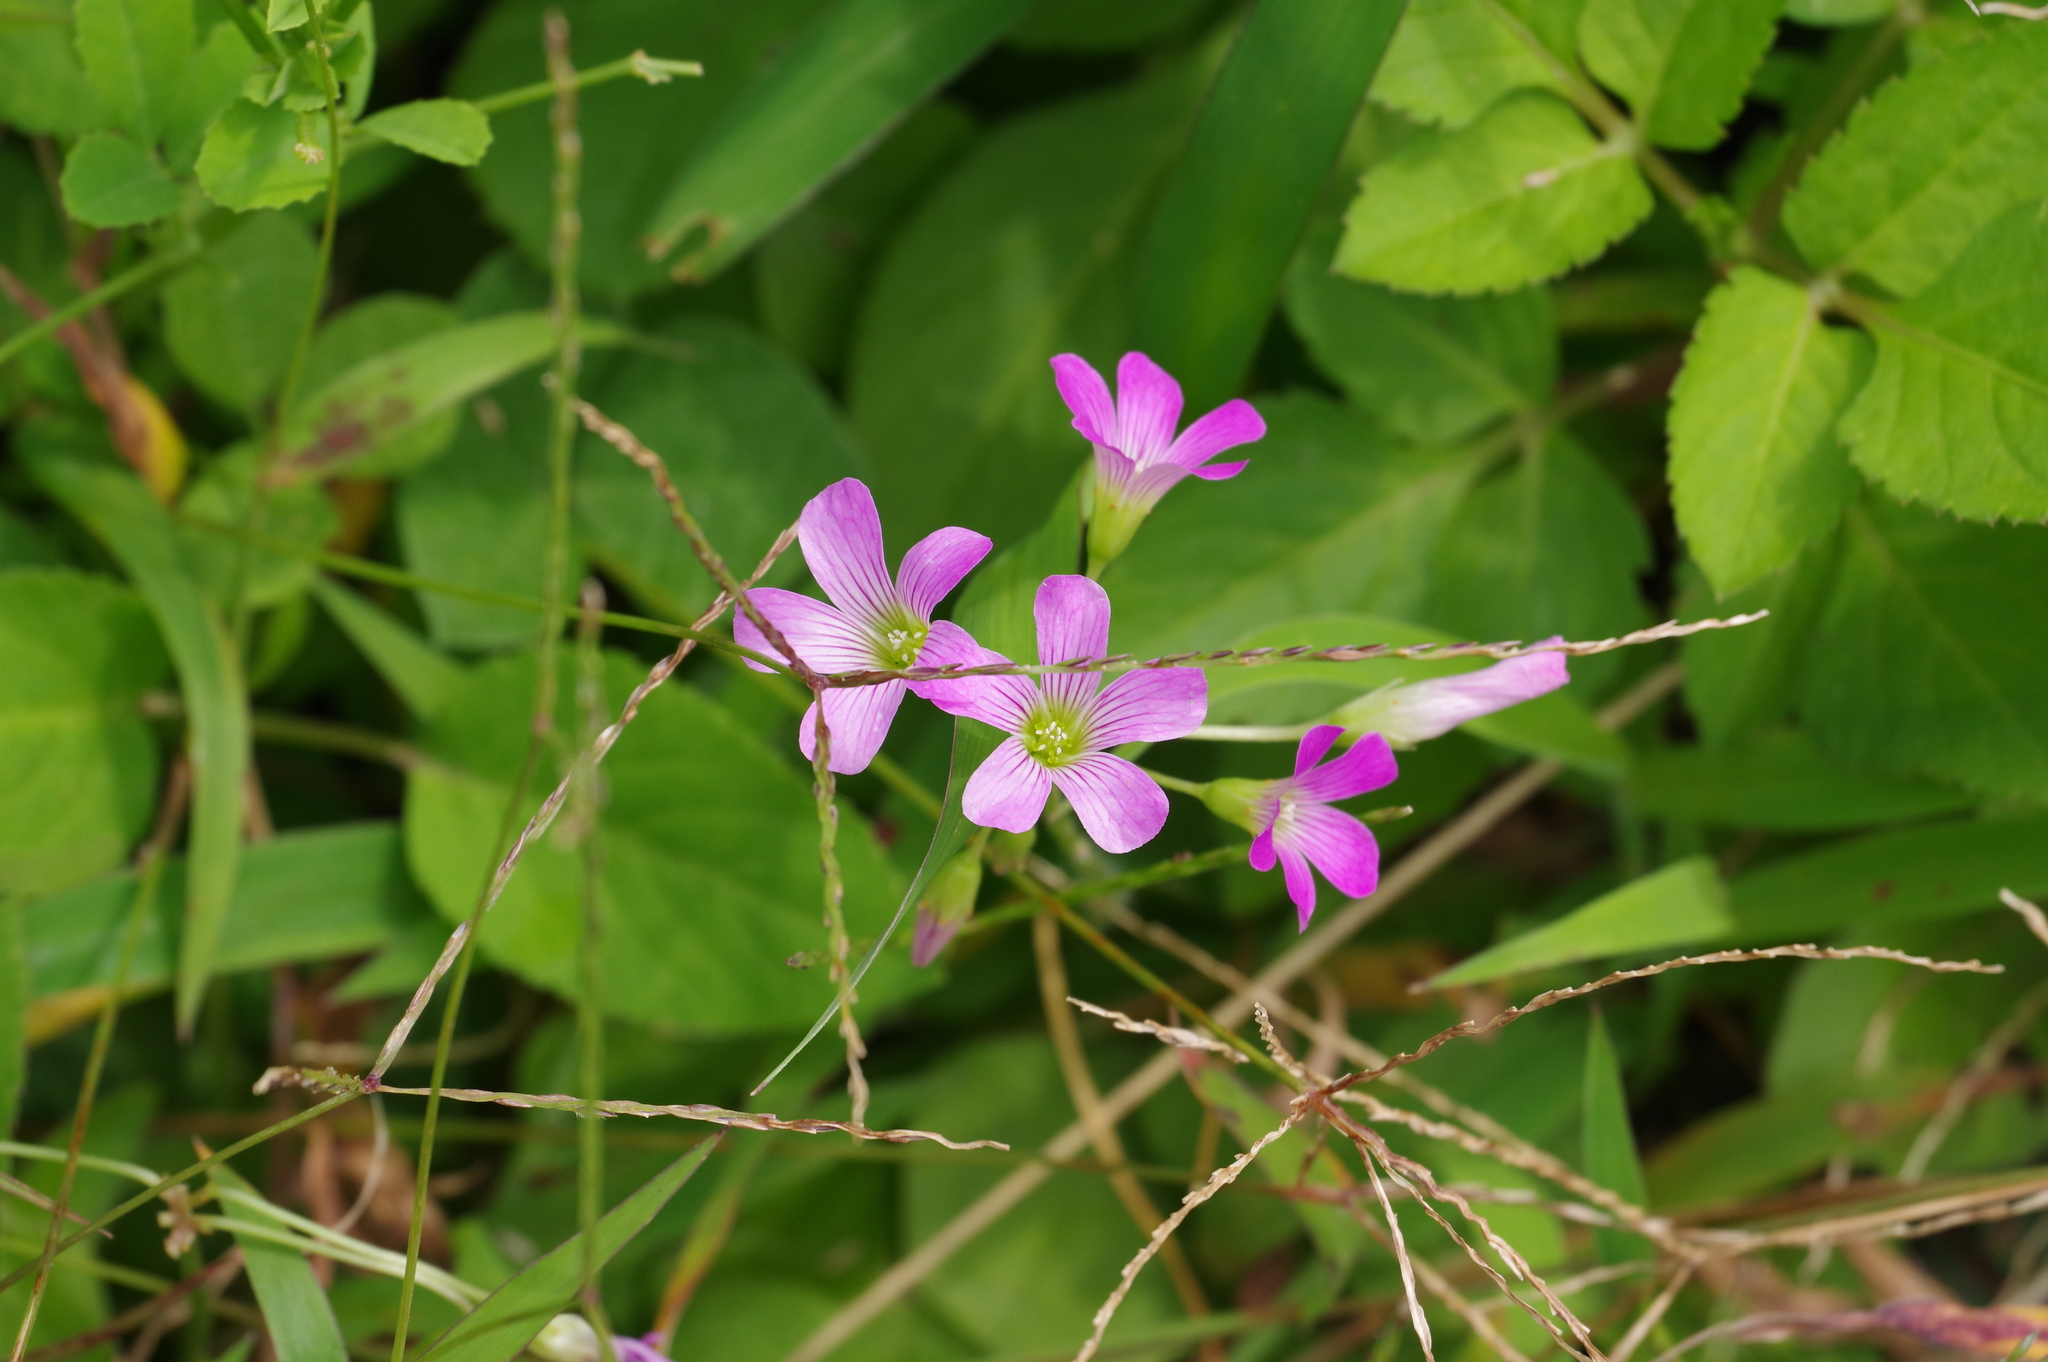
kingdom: Plantae
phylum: Tracheophyta
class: Magnoliopsida
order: Oxalidales
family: Oxalidaceae
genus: Oxalis
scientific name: Oxalis debilis
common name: Large-flowered pink-sorrel
